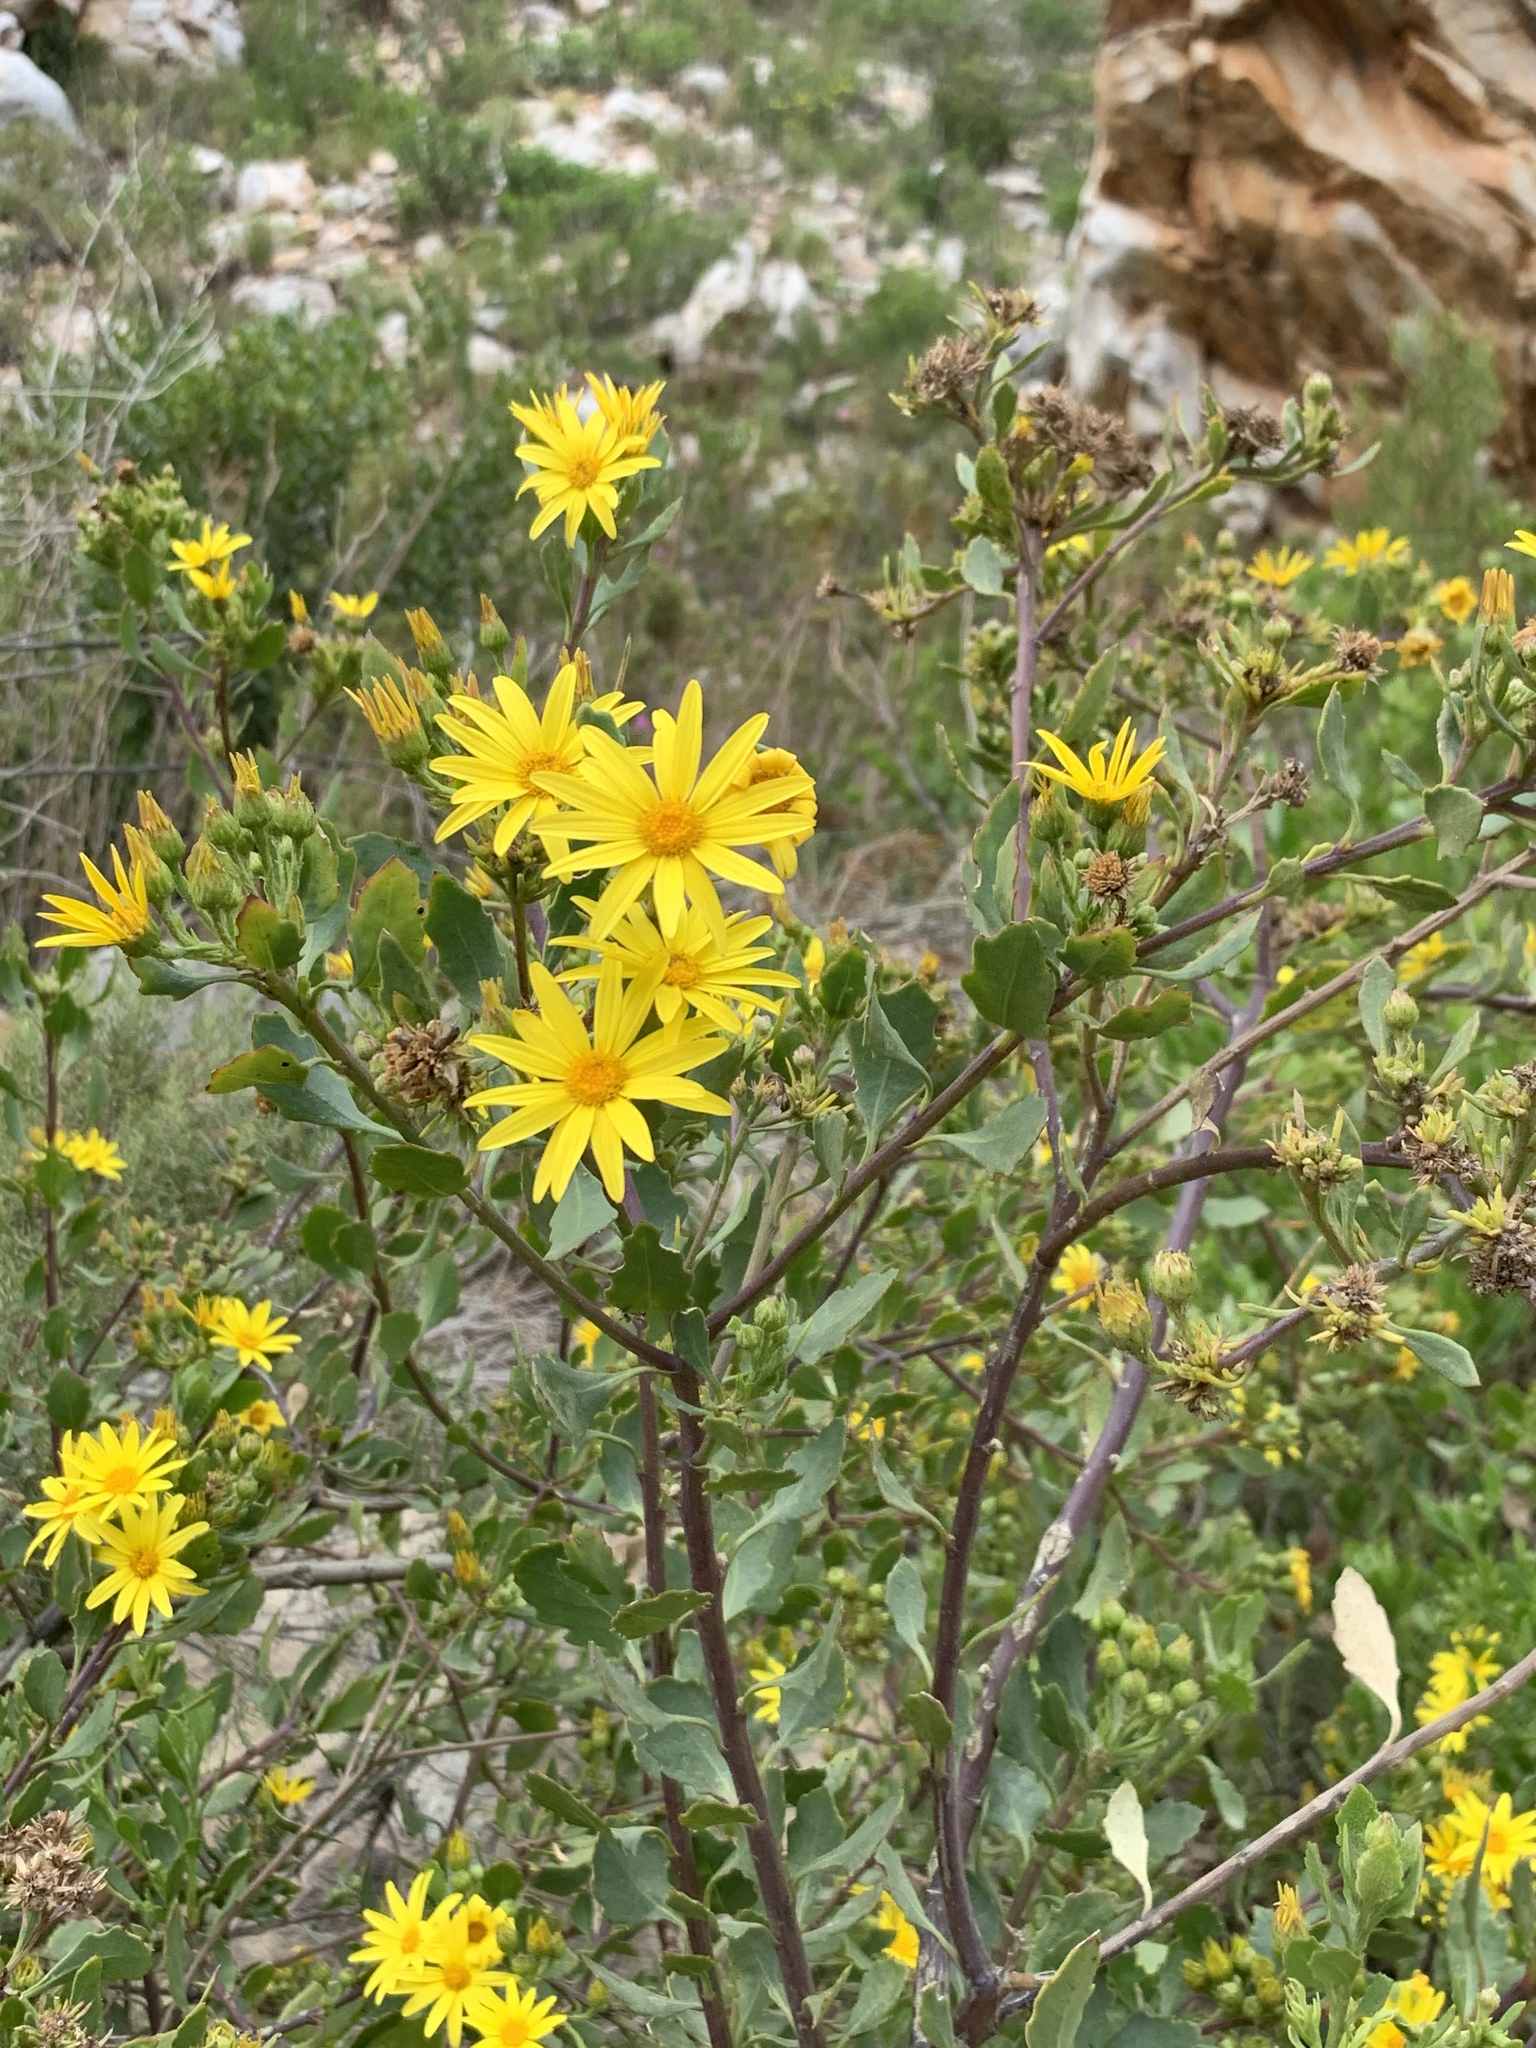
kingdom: Plantae
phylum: Tracheophyta
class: Magnoliopsida
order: Asterales
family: Asteraceae
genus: Osteospermum
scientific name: Osteospermum moniliferum
